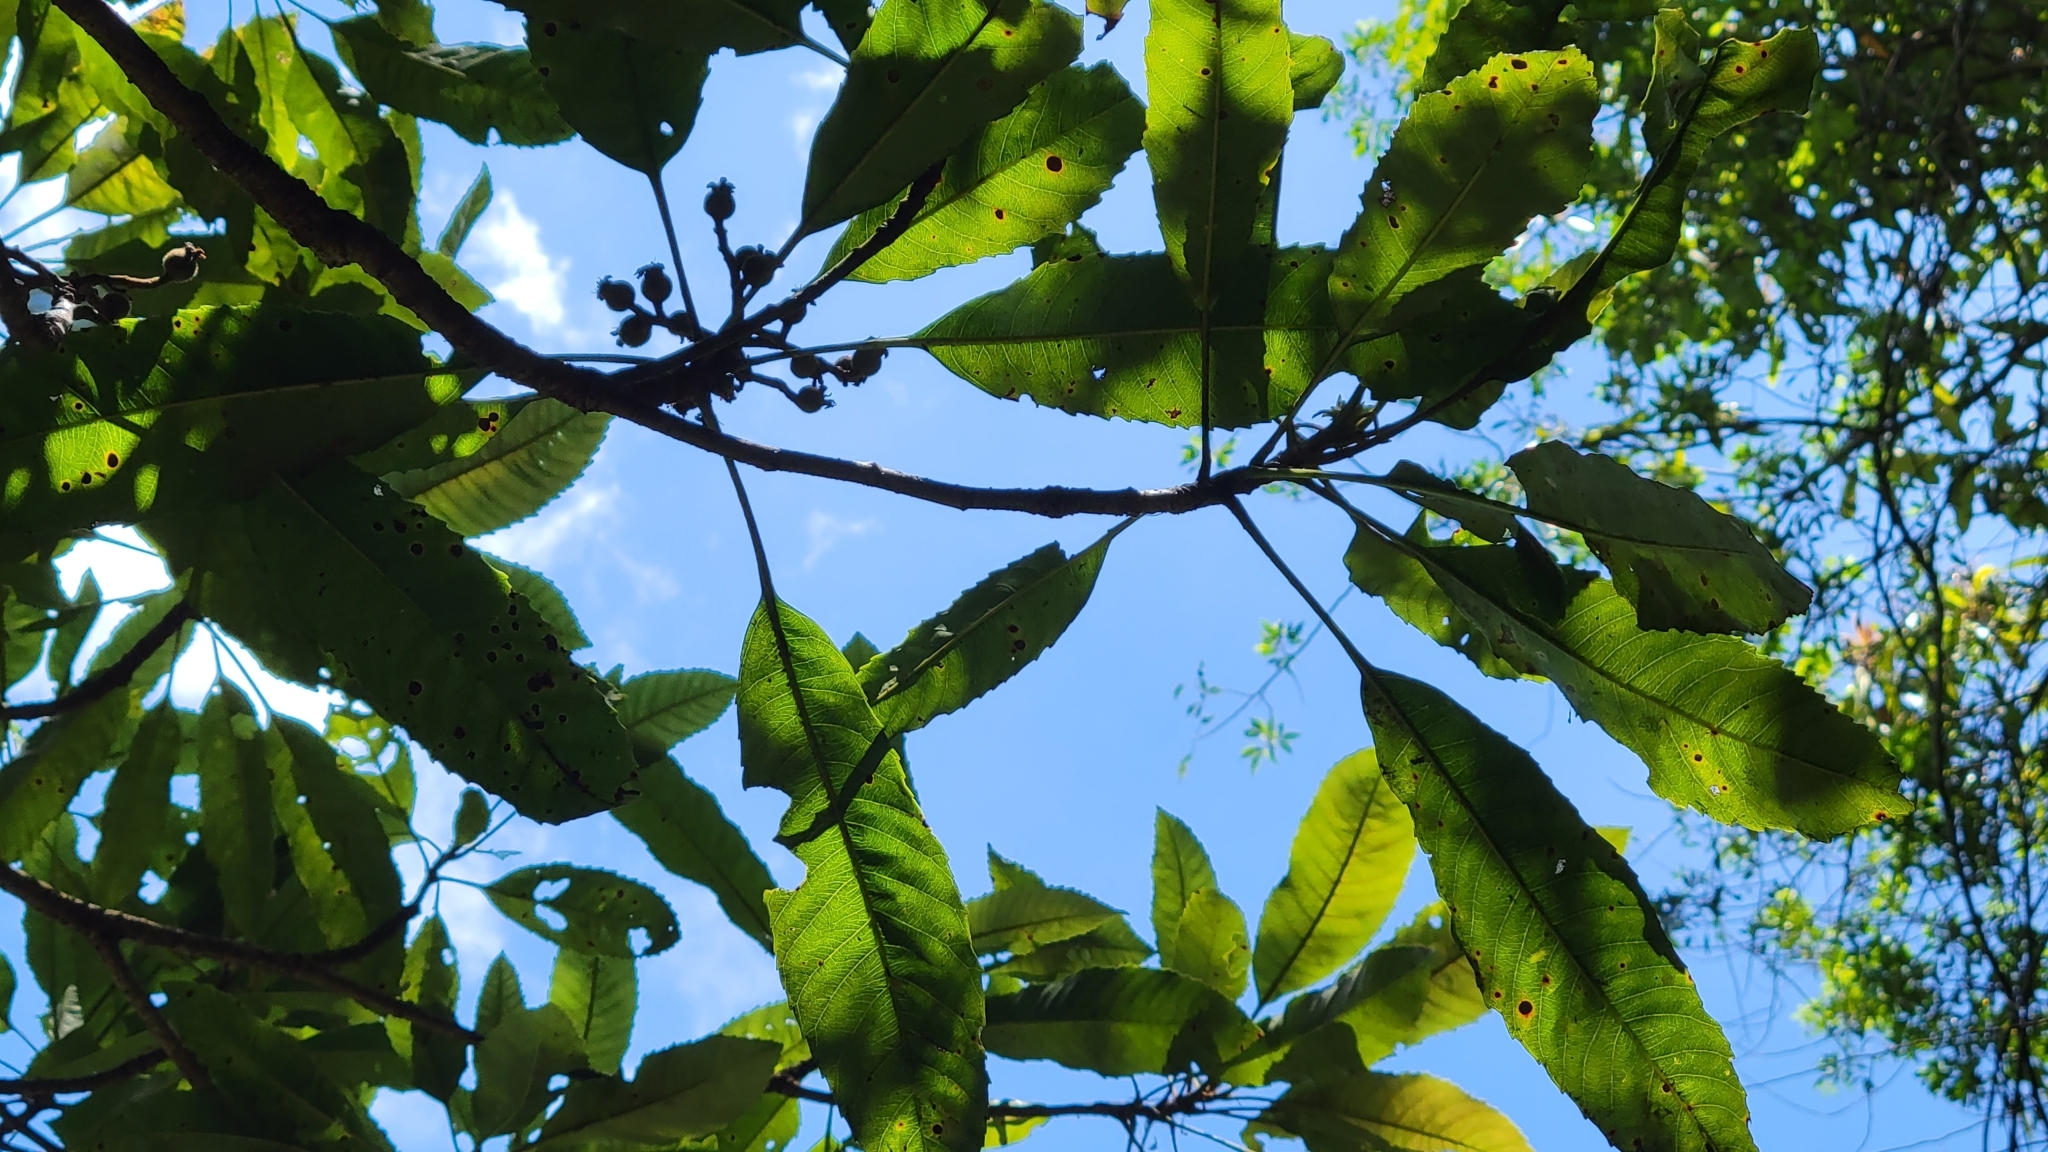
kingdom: Plantae
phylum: Tracheophyta
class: Magnoliopsida
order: Rosales
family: Rosaceae
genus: Rhaphiolepis
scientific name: Rhaphiolepis deflexa
